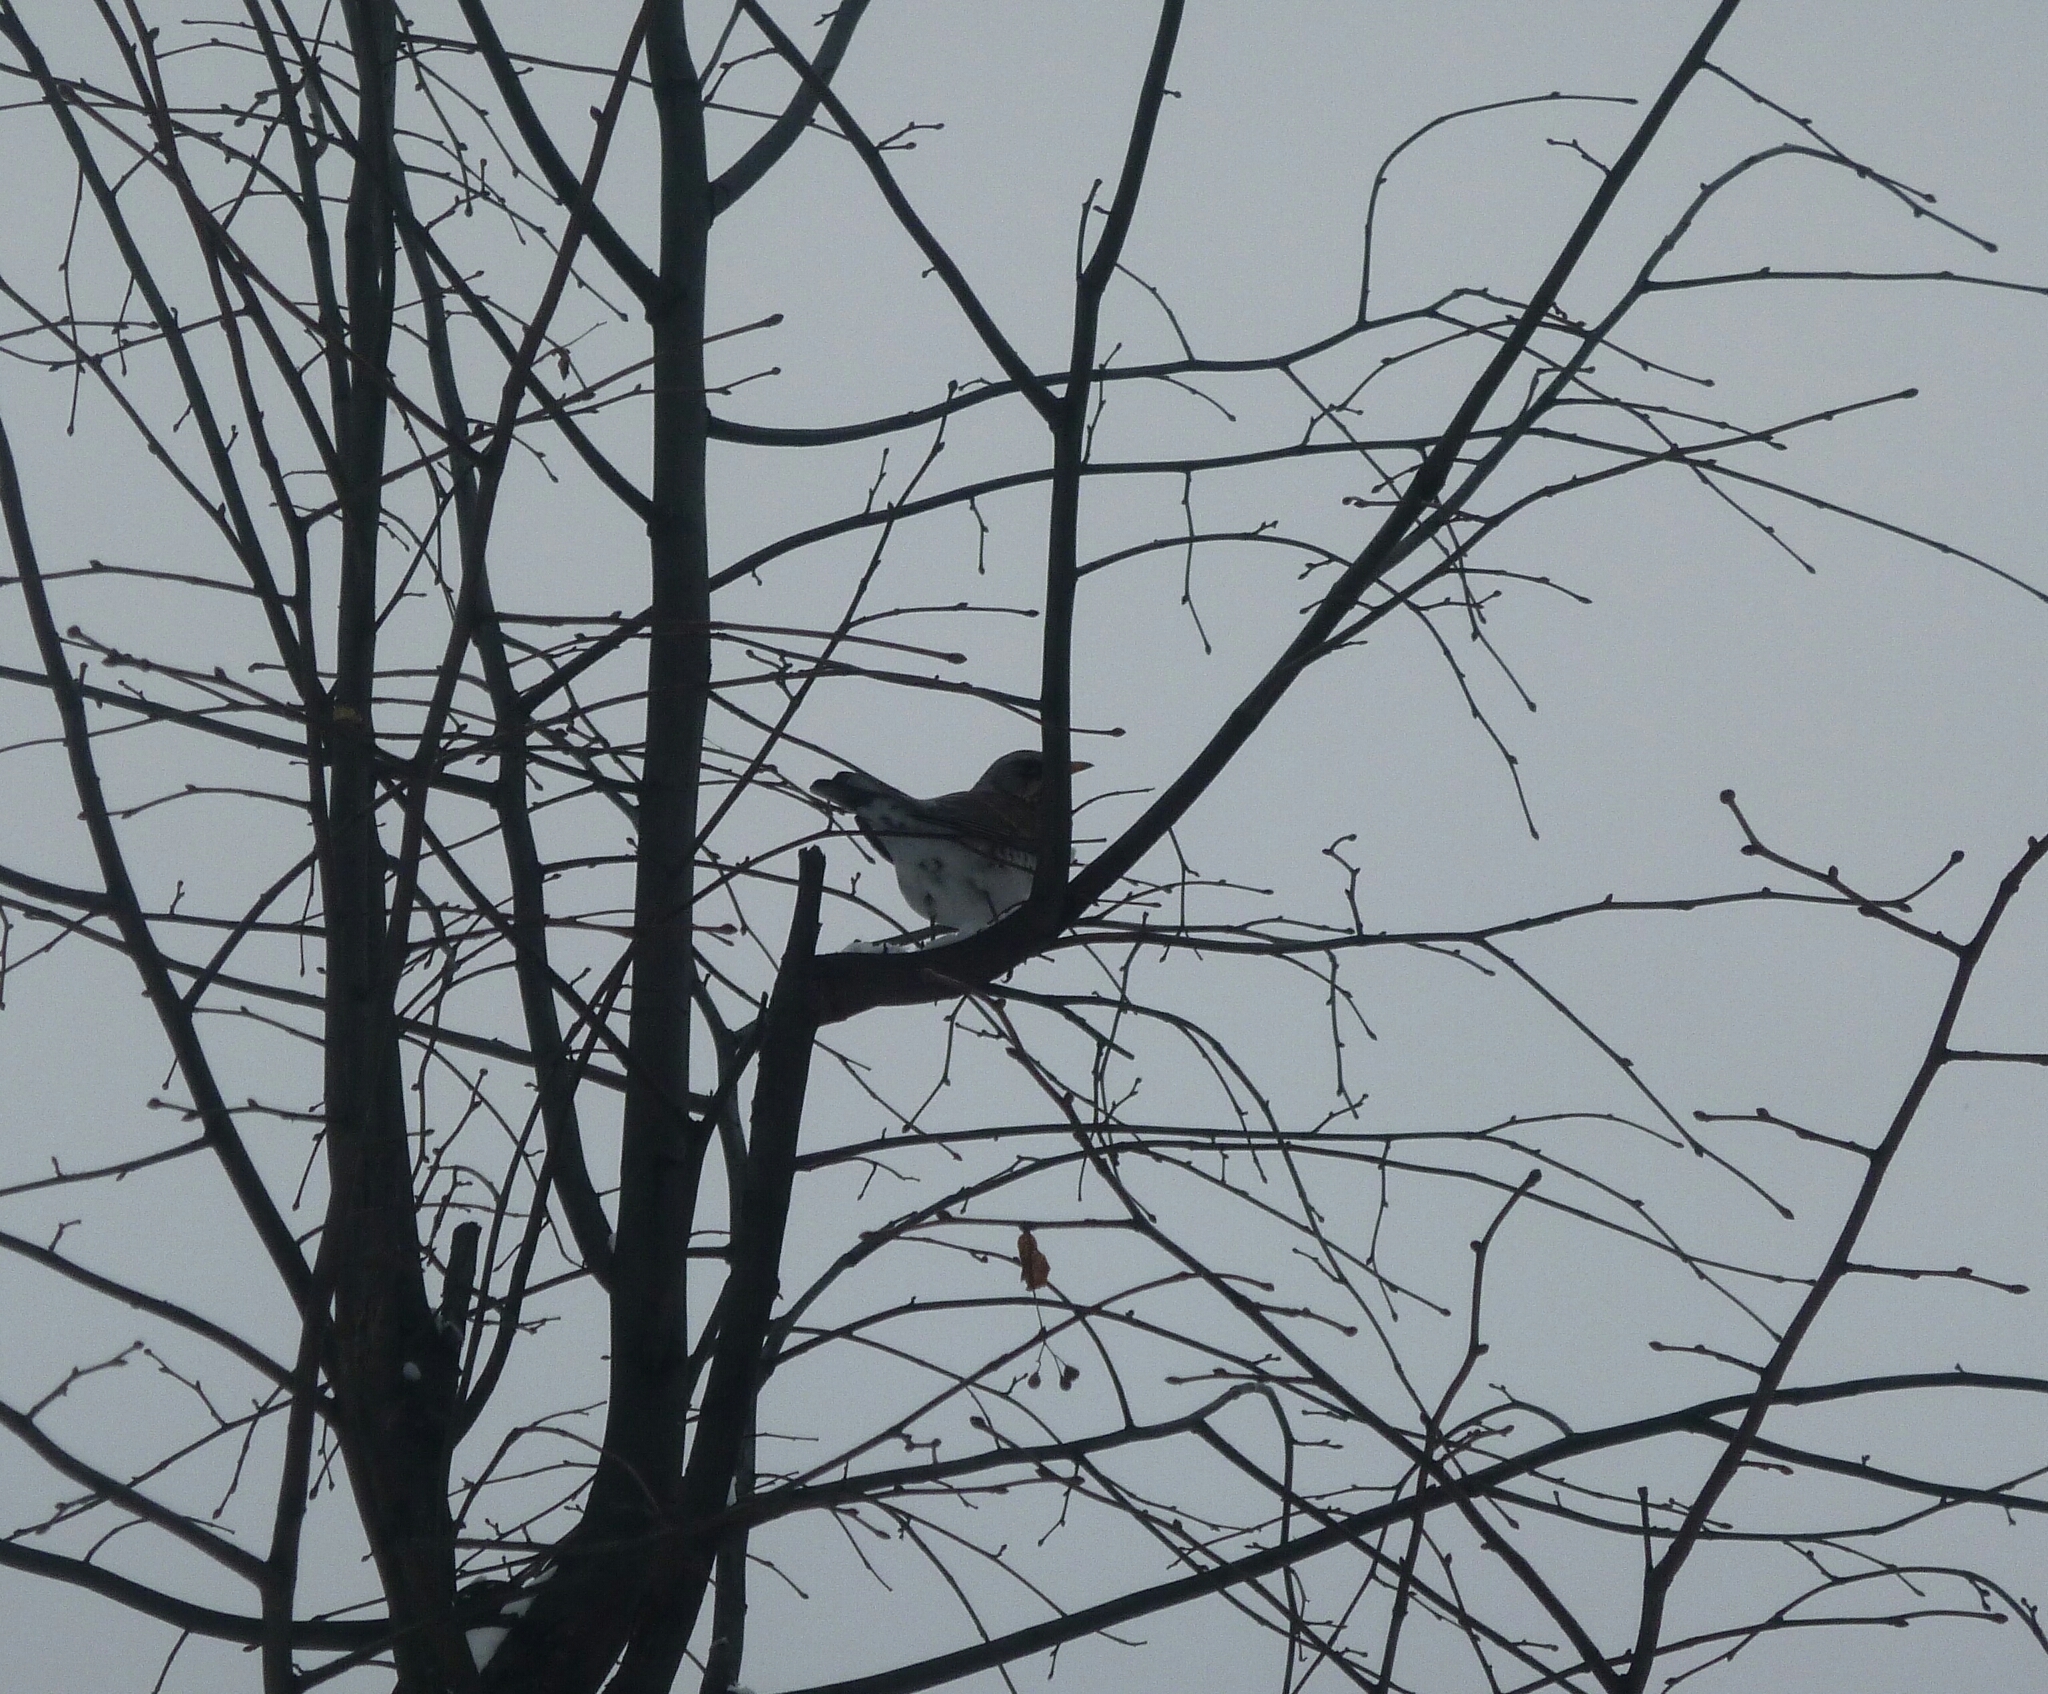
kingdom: Animalia
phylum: Chordata
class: Aves
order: Passeriformes
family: Turdidae
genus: Turdus
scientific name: Turdus pilaris
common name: Fieldfare
